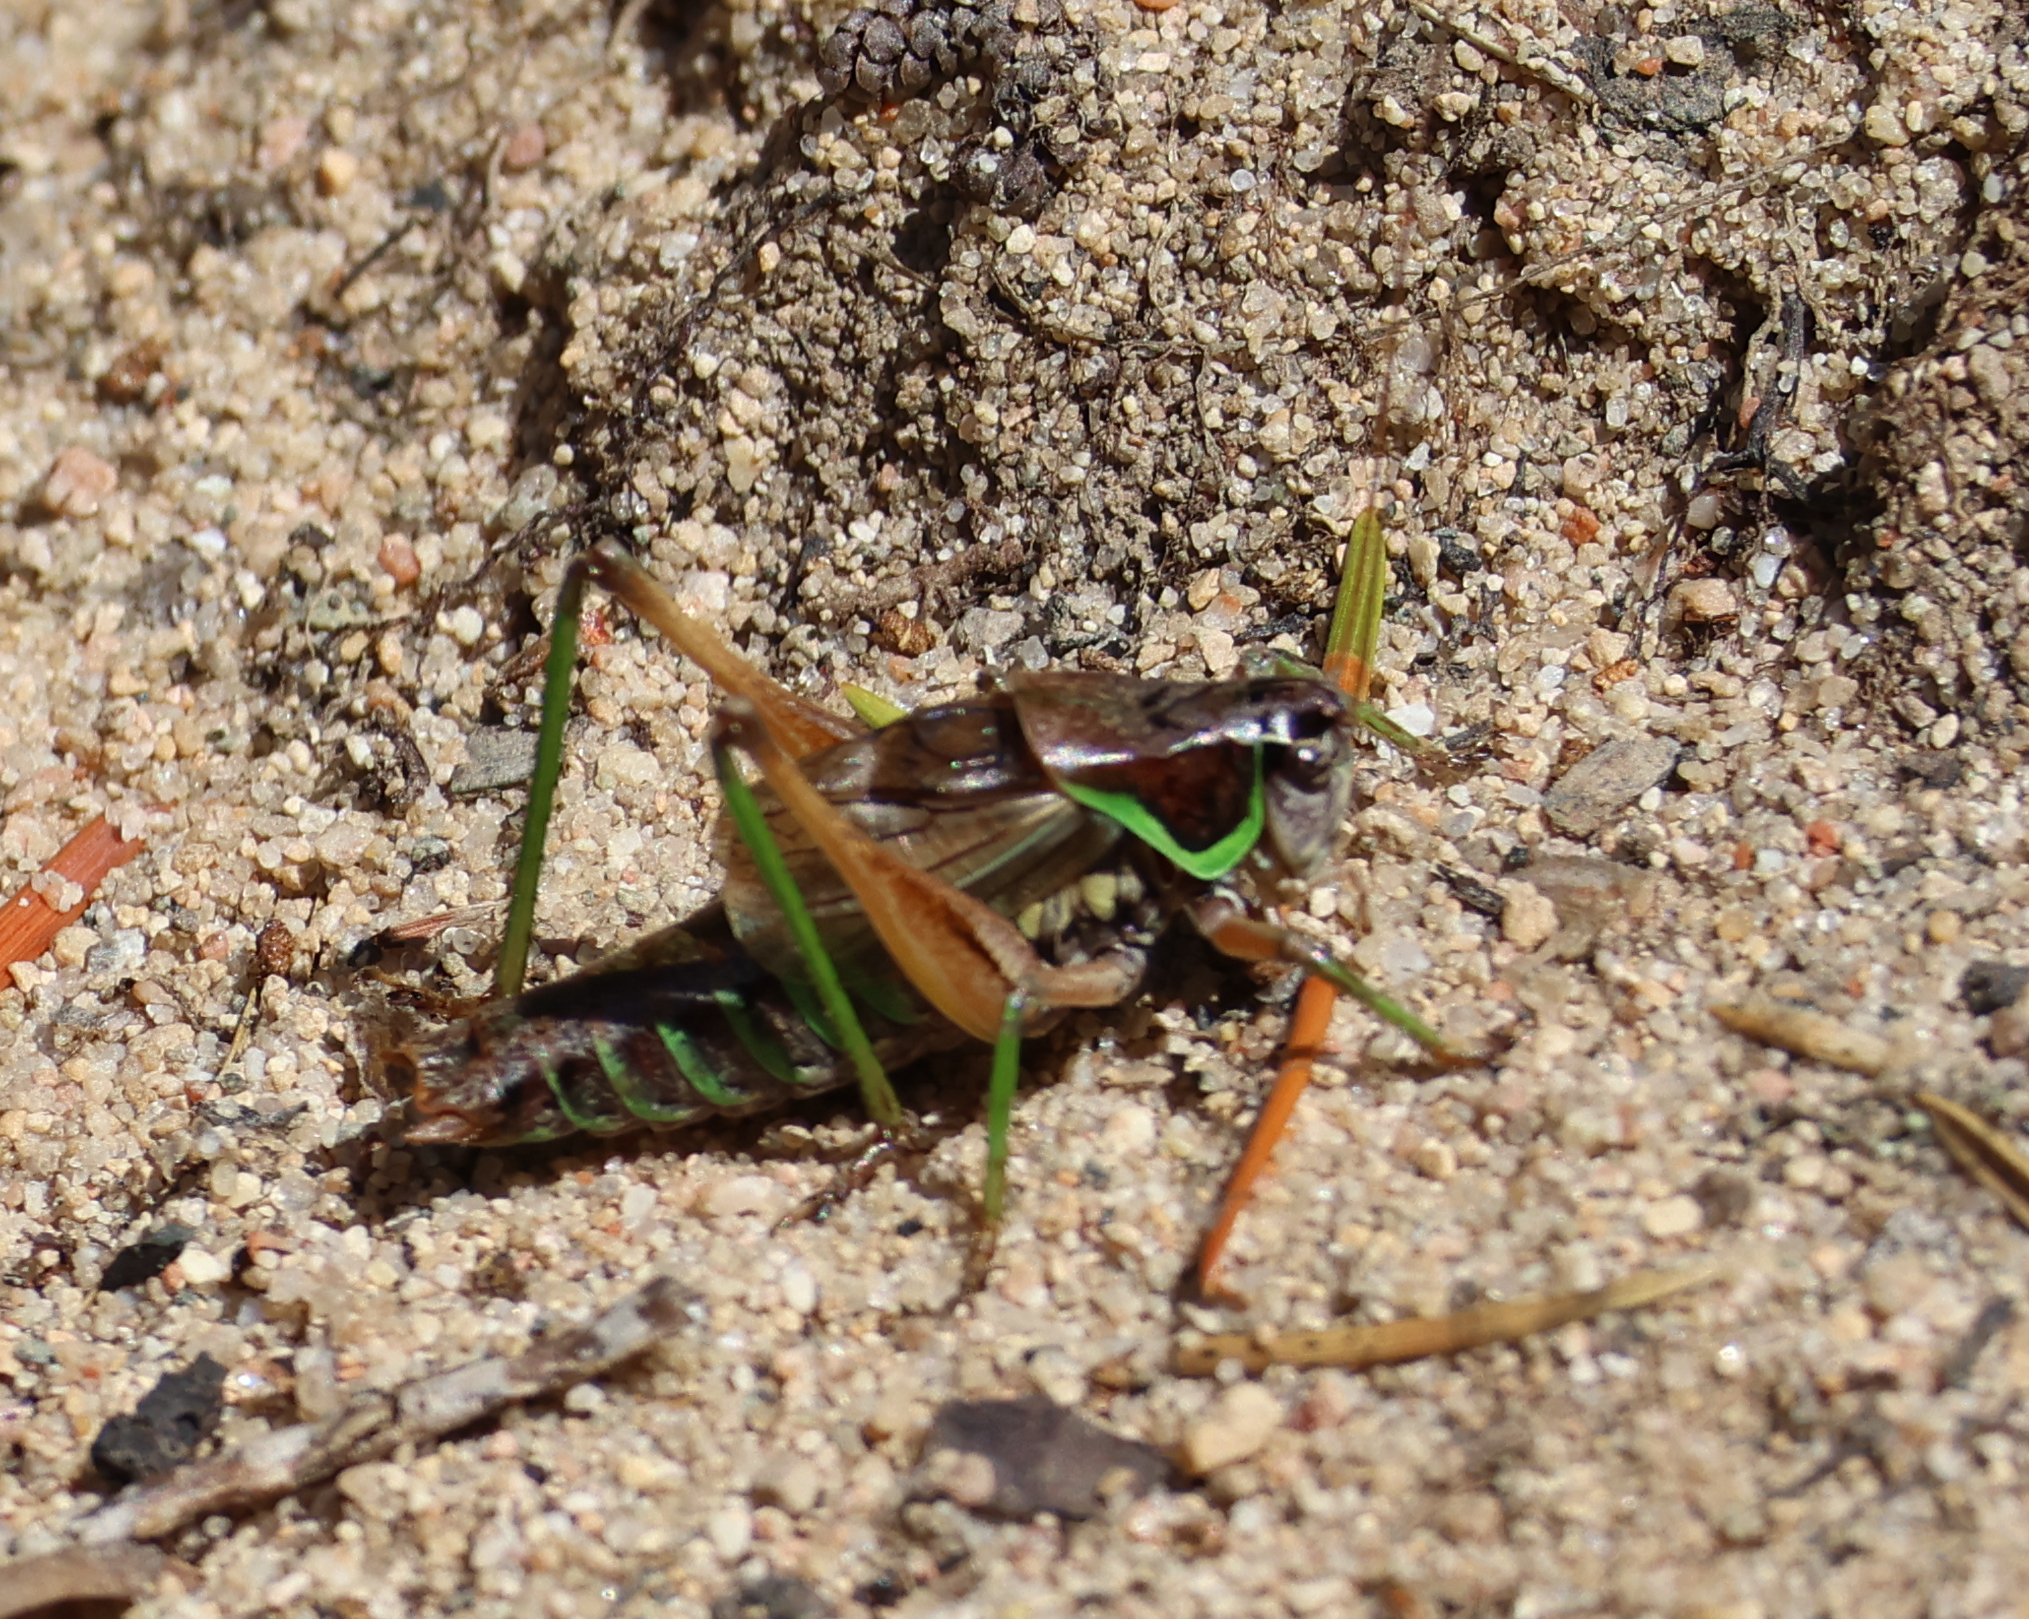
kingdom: Animalia
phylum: Arthropoda
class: Insecta
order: Orthoptera
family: Tettigoniidae
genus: Sphagniana
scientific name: Sphagniana sphagnorum
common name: Bog katydid
